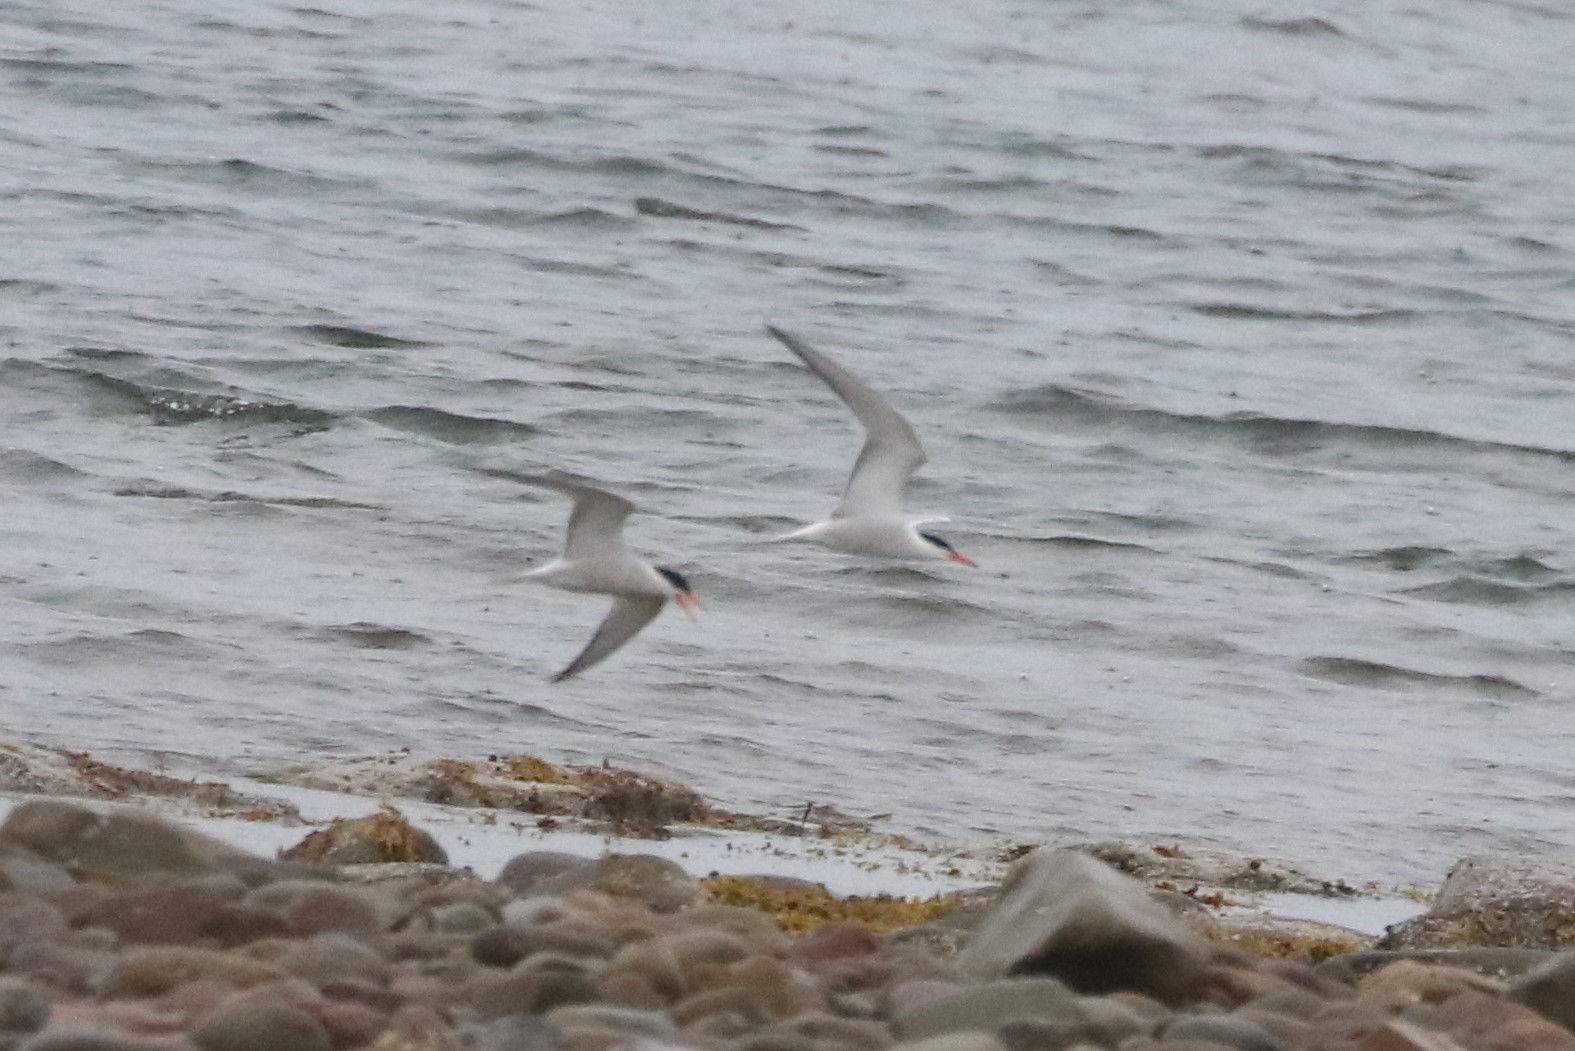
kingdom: Animalia
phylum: Chordata
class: Aves
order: Charadriiformes
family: Laridae
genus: Sterna
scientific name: Sterna hirundo
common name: Common tern
